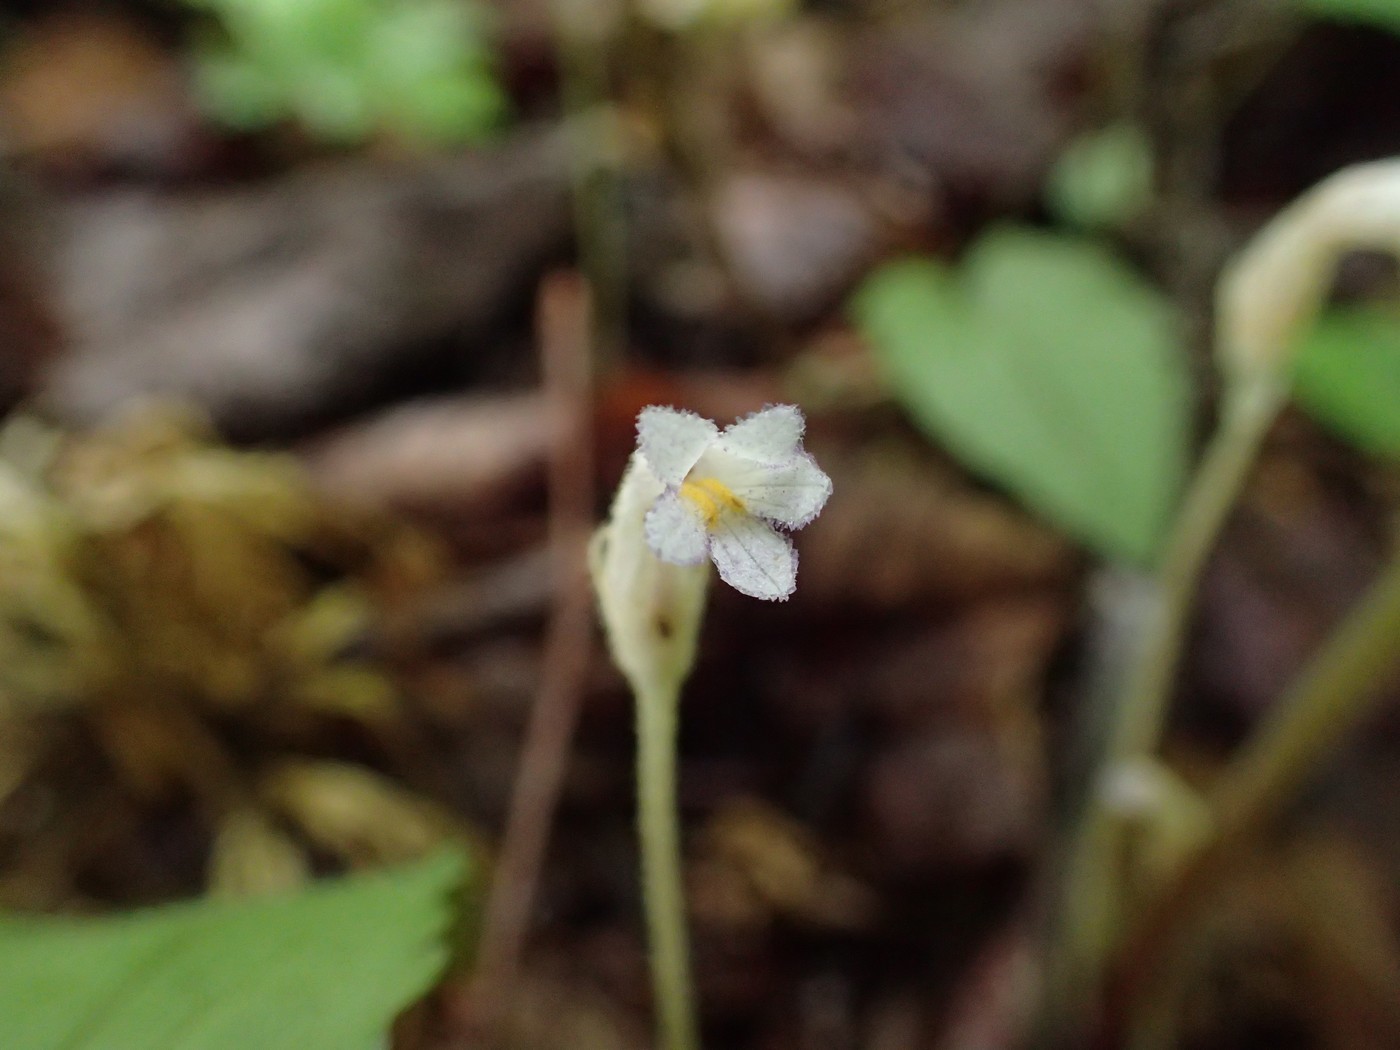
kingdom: Plantae
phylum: Tracheophyta
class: Magnoliopsida
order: Lamiales
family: Orobanchaceae
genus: Aphyllon
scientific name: Aphyllon uniflorum
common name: One-flowered broomrape
